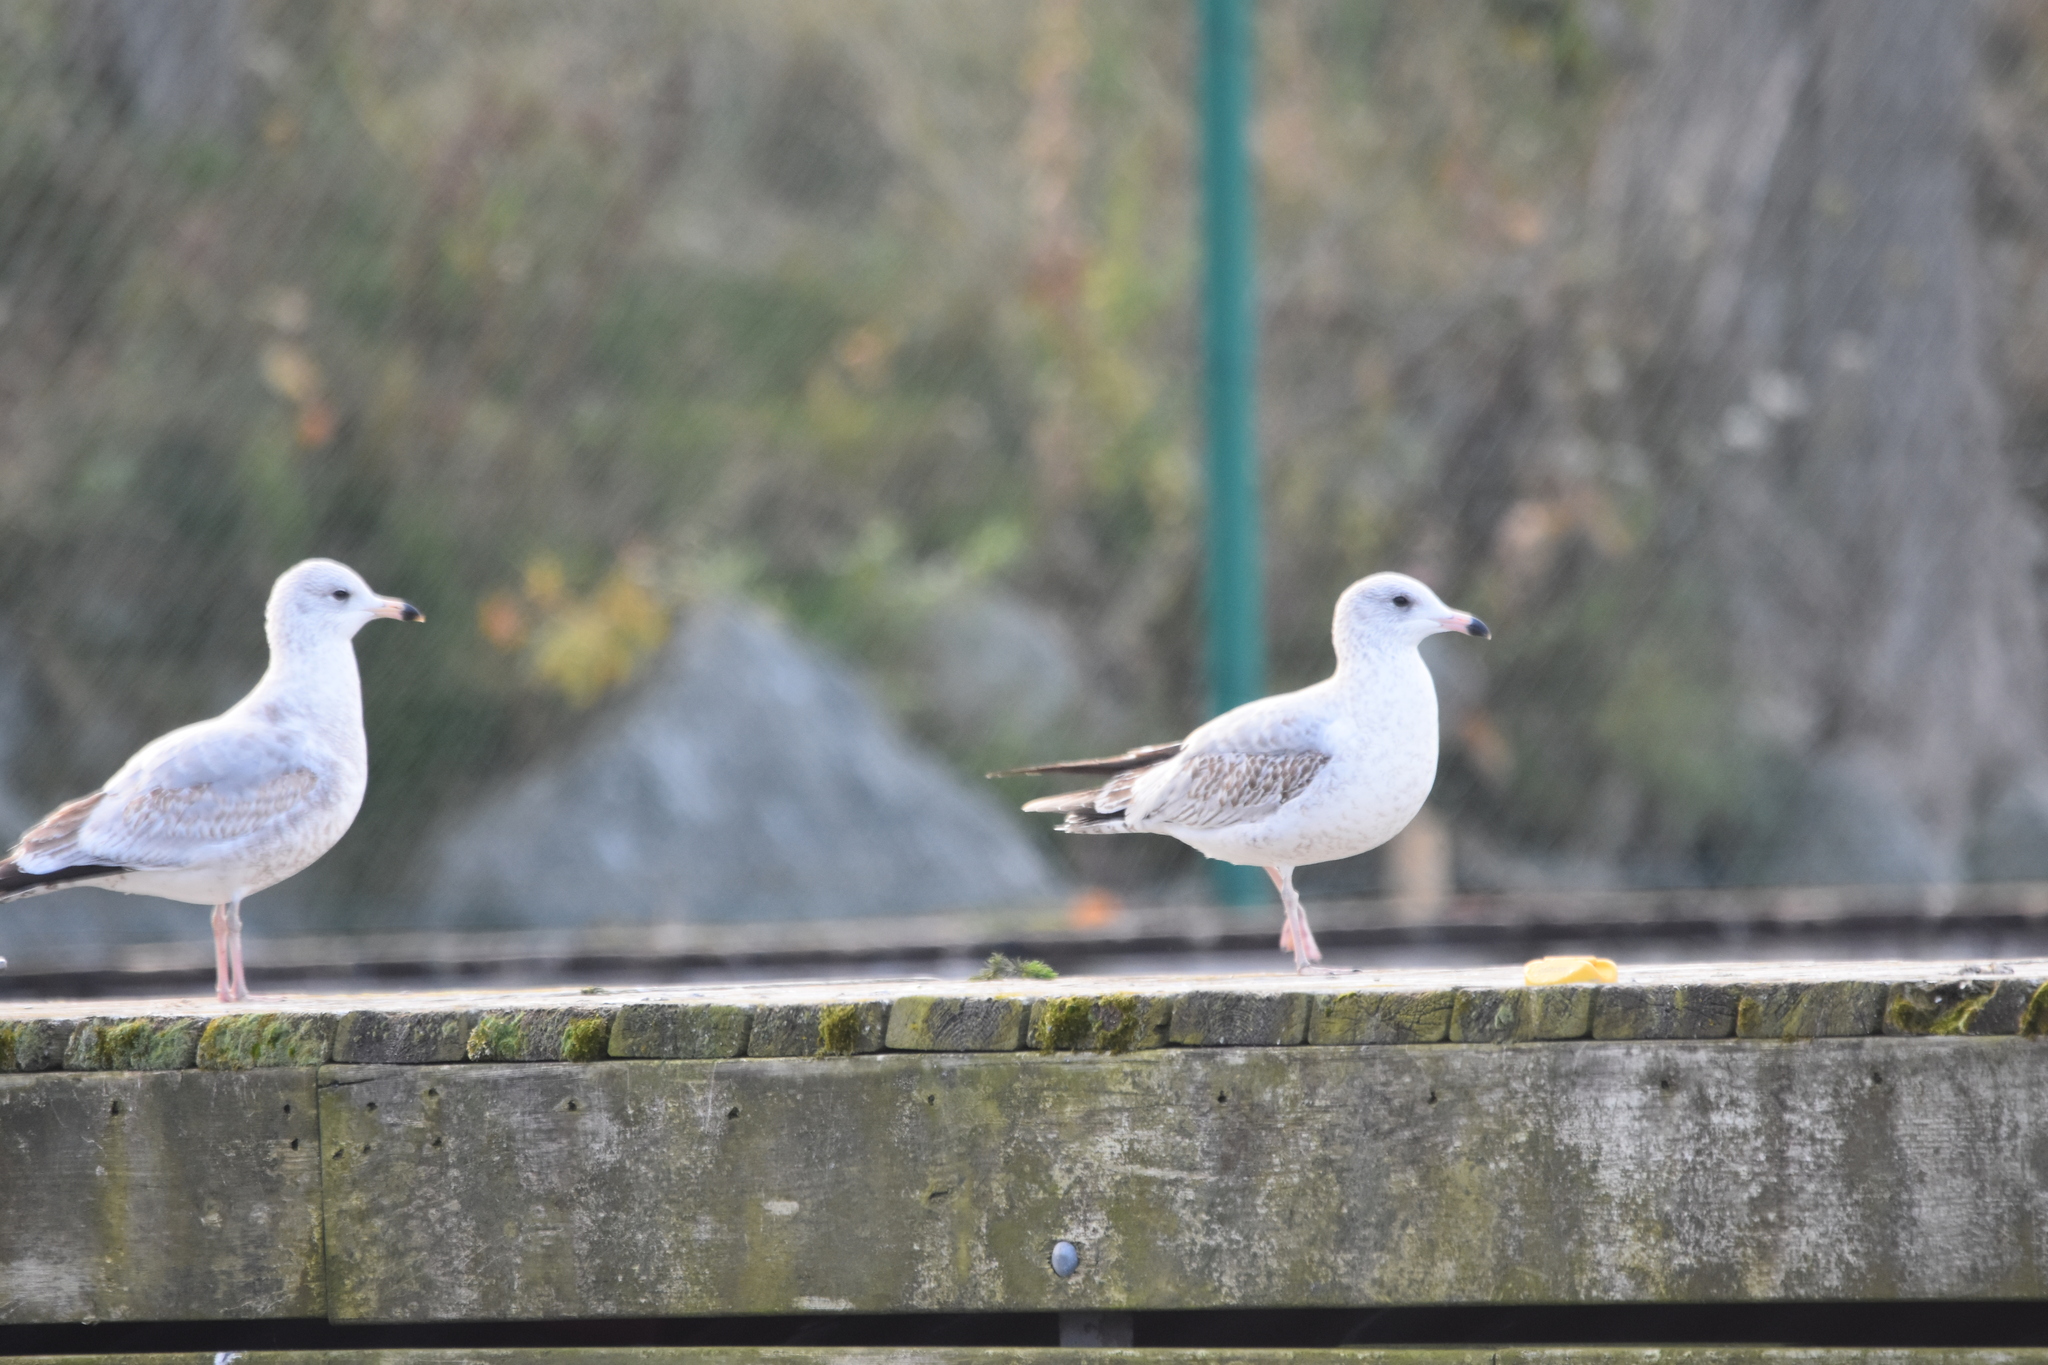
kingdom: Animalia
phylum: Chordata
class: Aves
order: Charadriiformes
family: Laridae
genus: Larus
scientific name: Larus delawarensis
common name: Ring-billed gull
